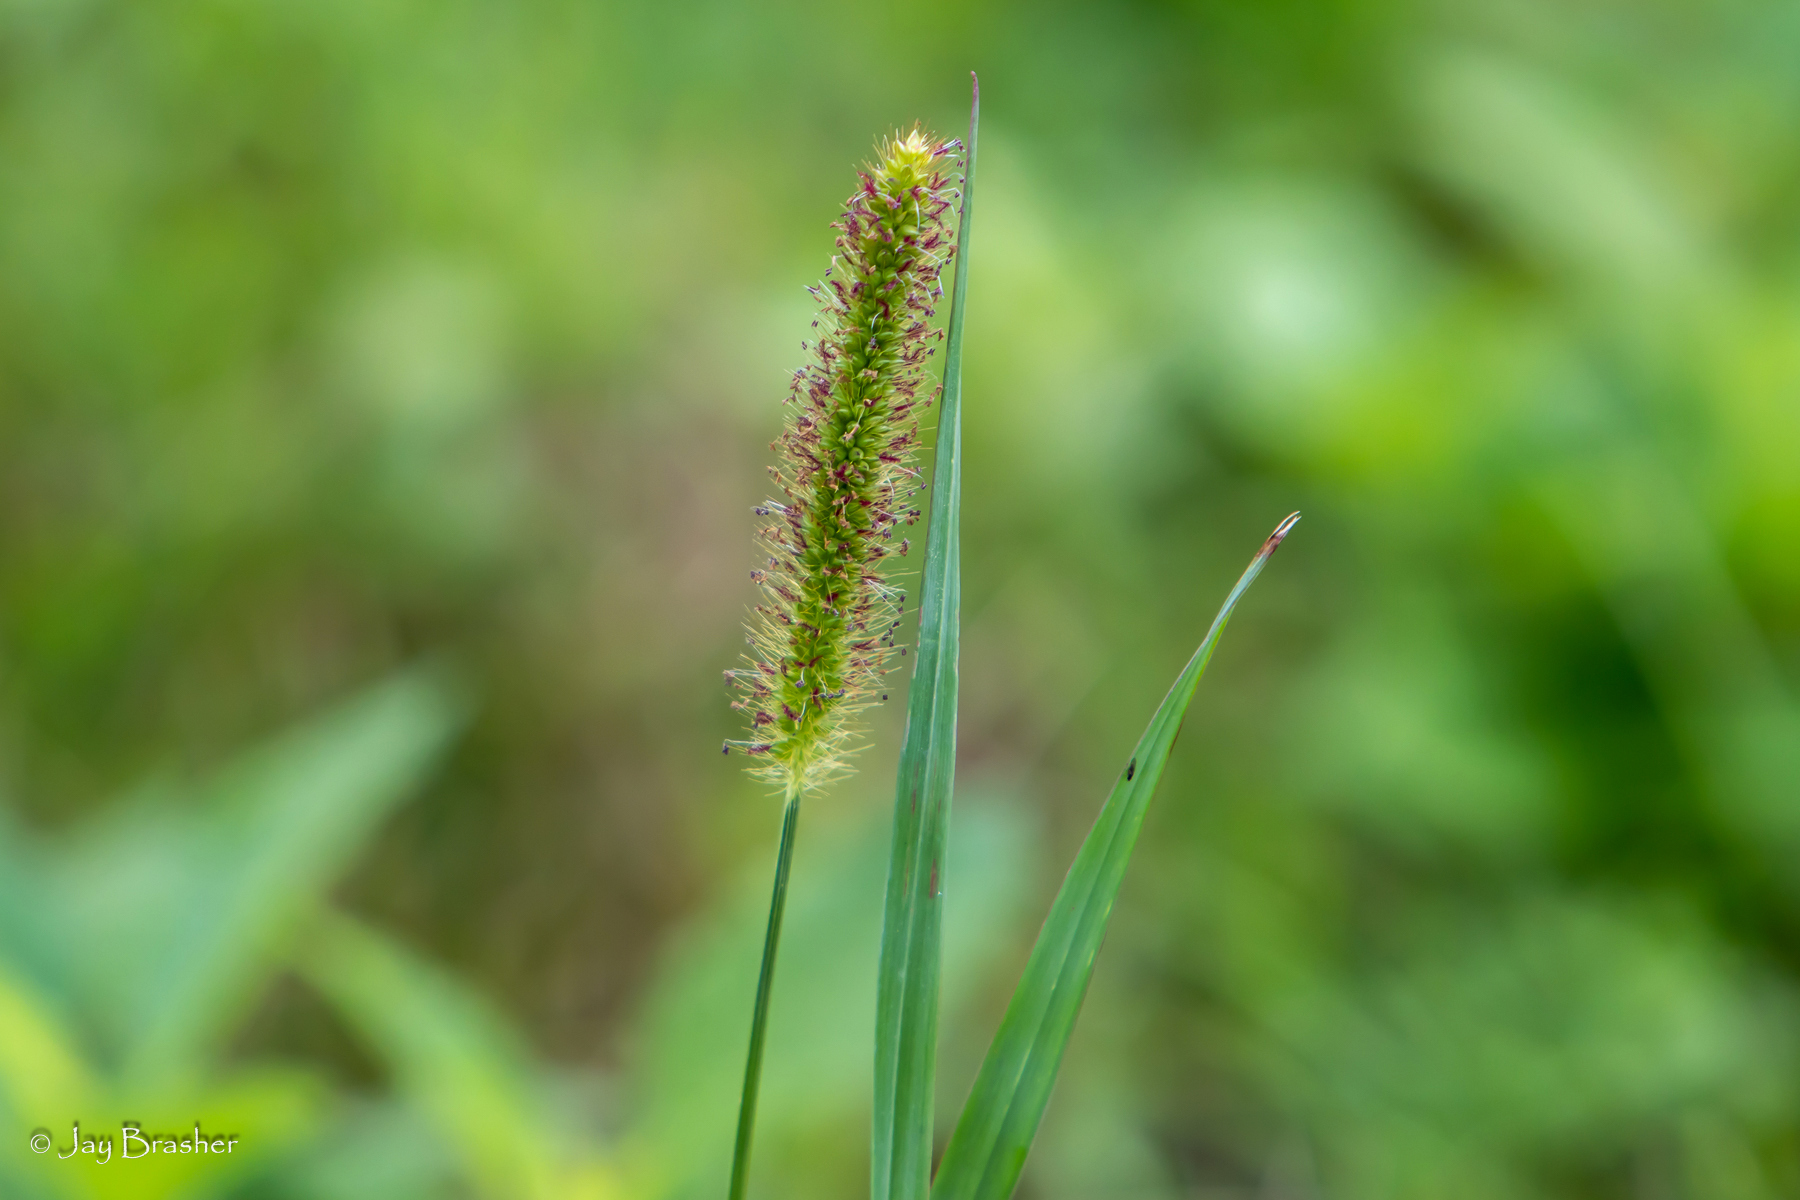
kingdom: Plantae
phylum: Tracheophyta
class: Liliopsida
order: Poales
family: Poaceae
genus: Setaria
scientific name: Setaria parviflora
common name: Knotroot bristle-grass
